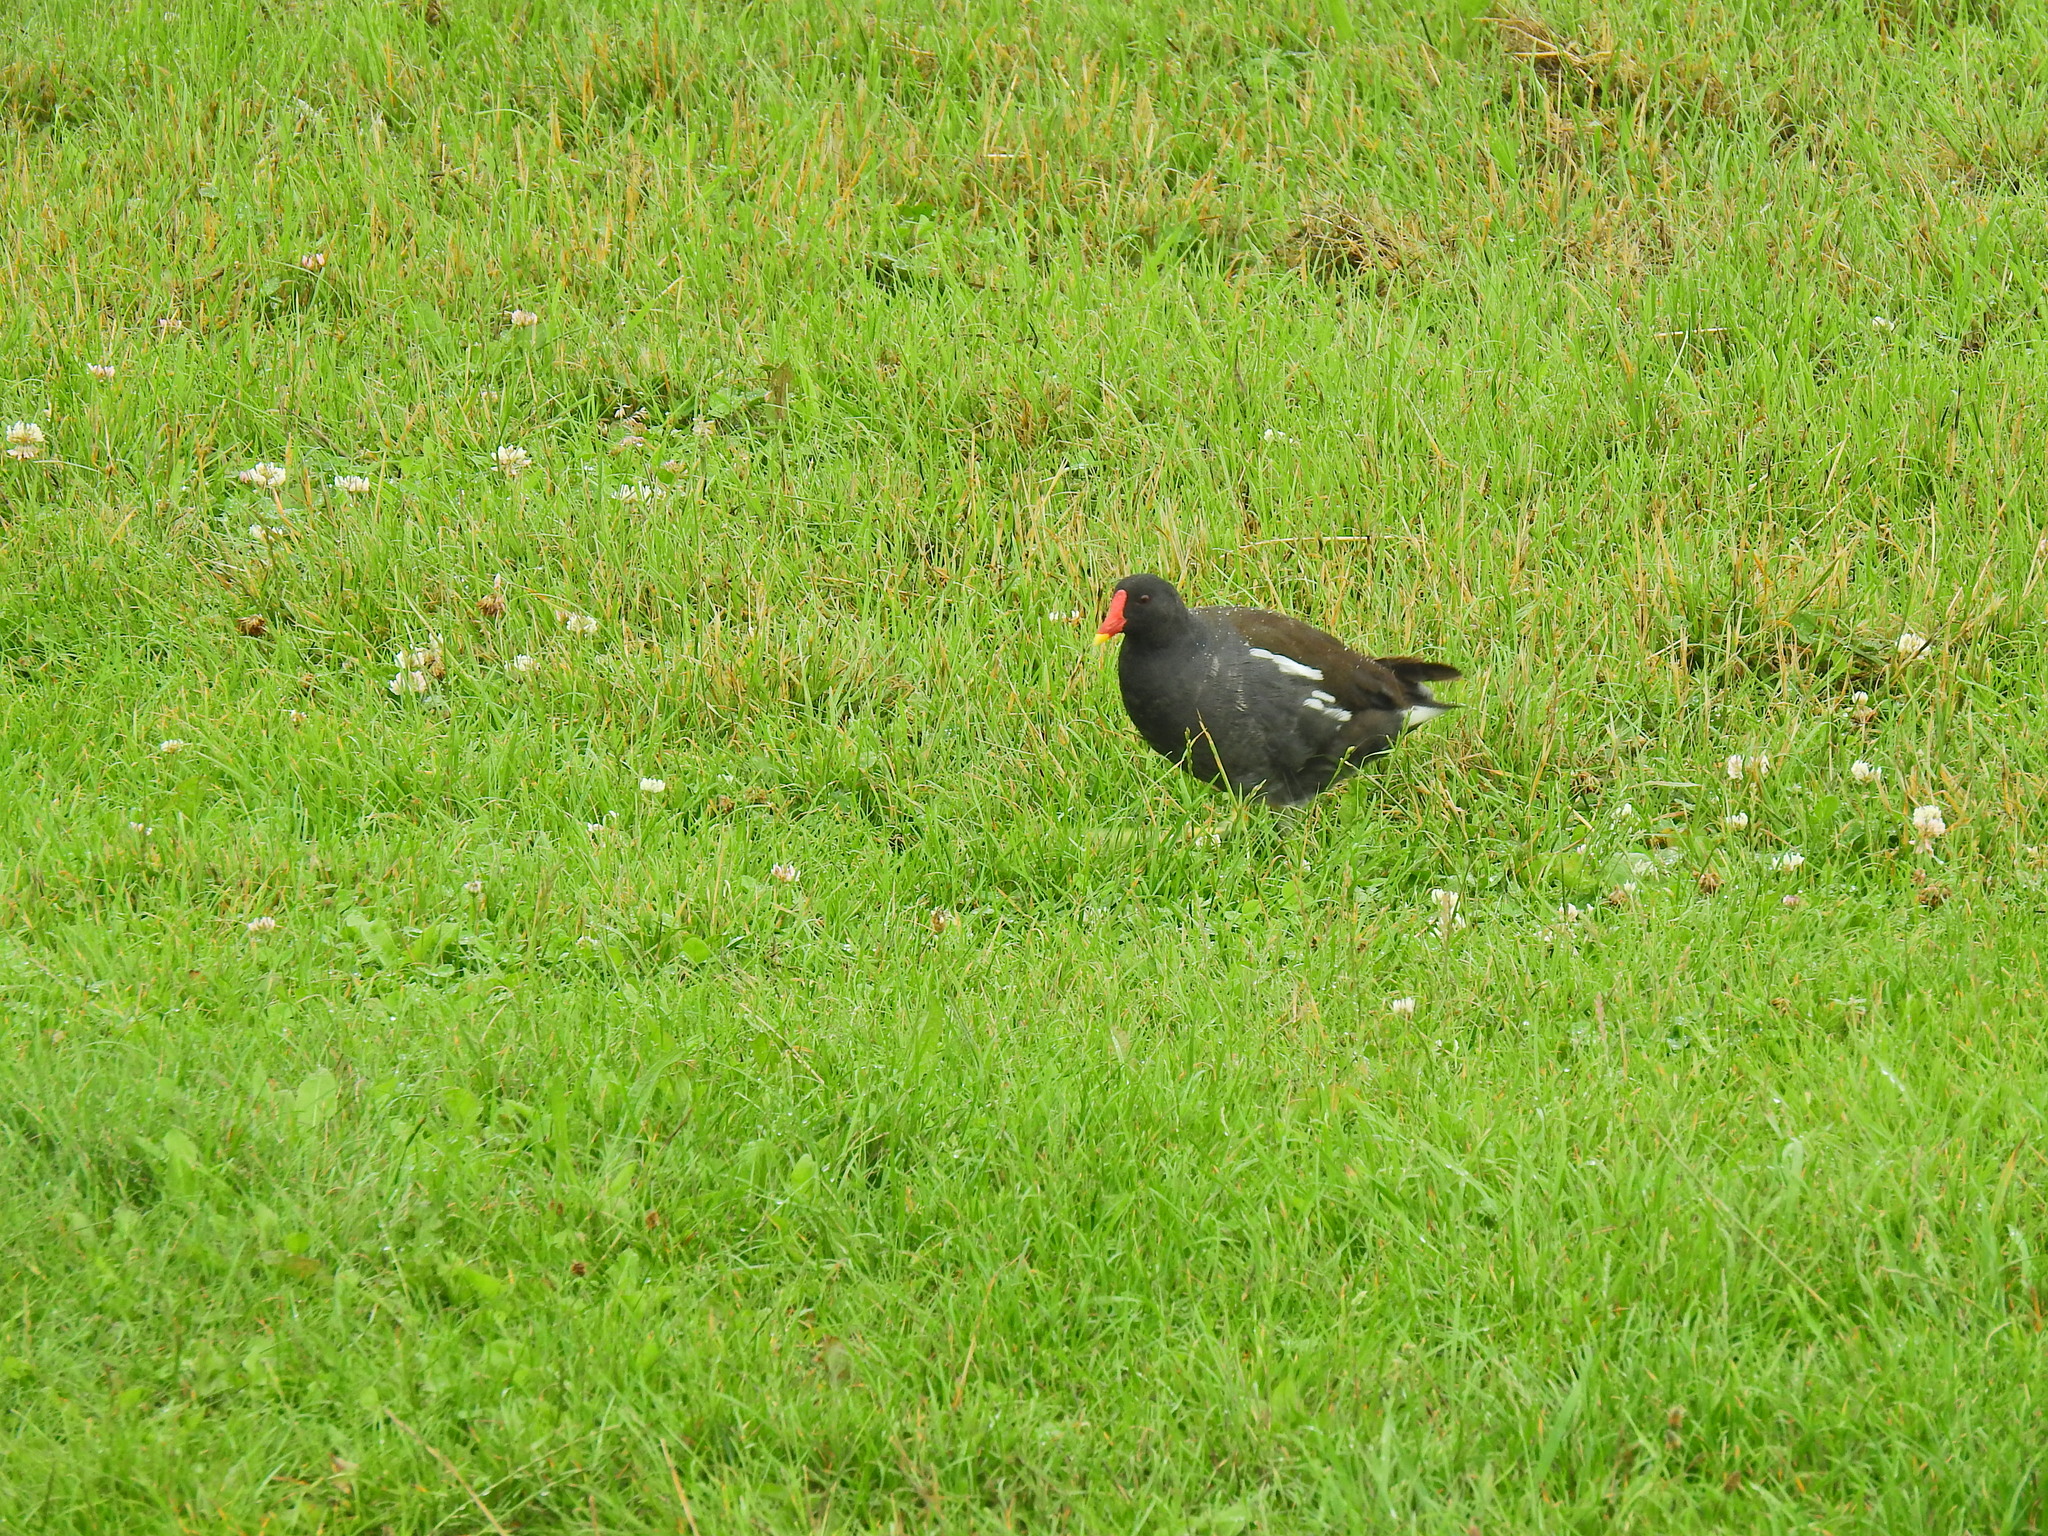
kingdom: Animalia
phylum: Chordata
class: Aves
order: Gruiformes
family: Rallidae
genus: Gallinula
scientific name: Gallinula chloropus
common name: Common moorhen
